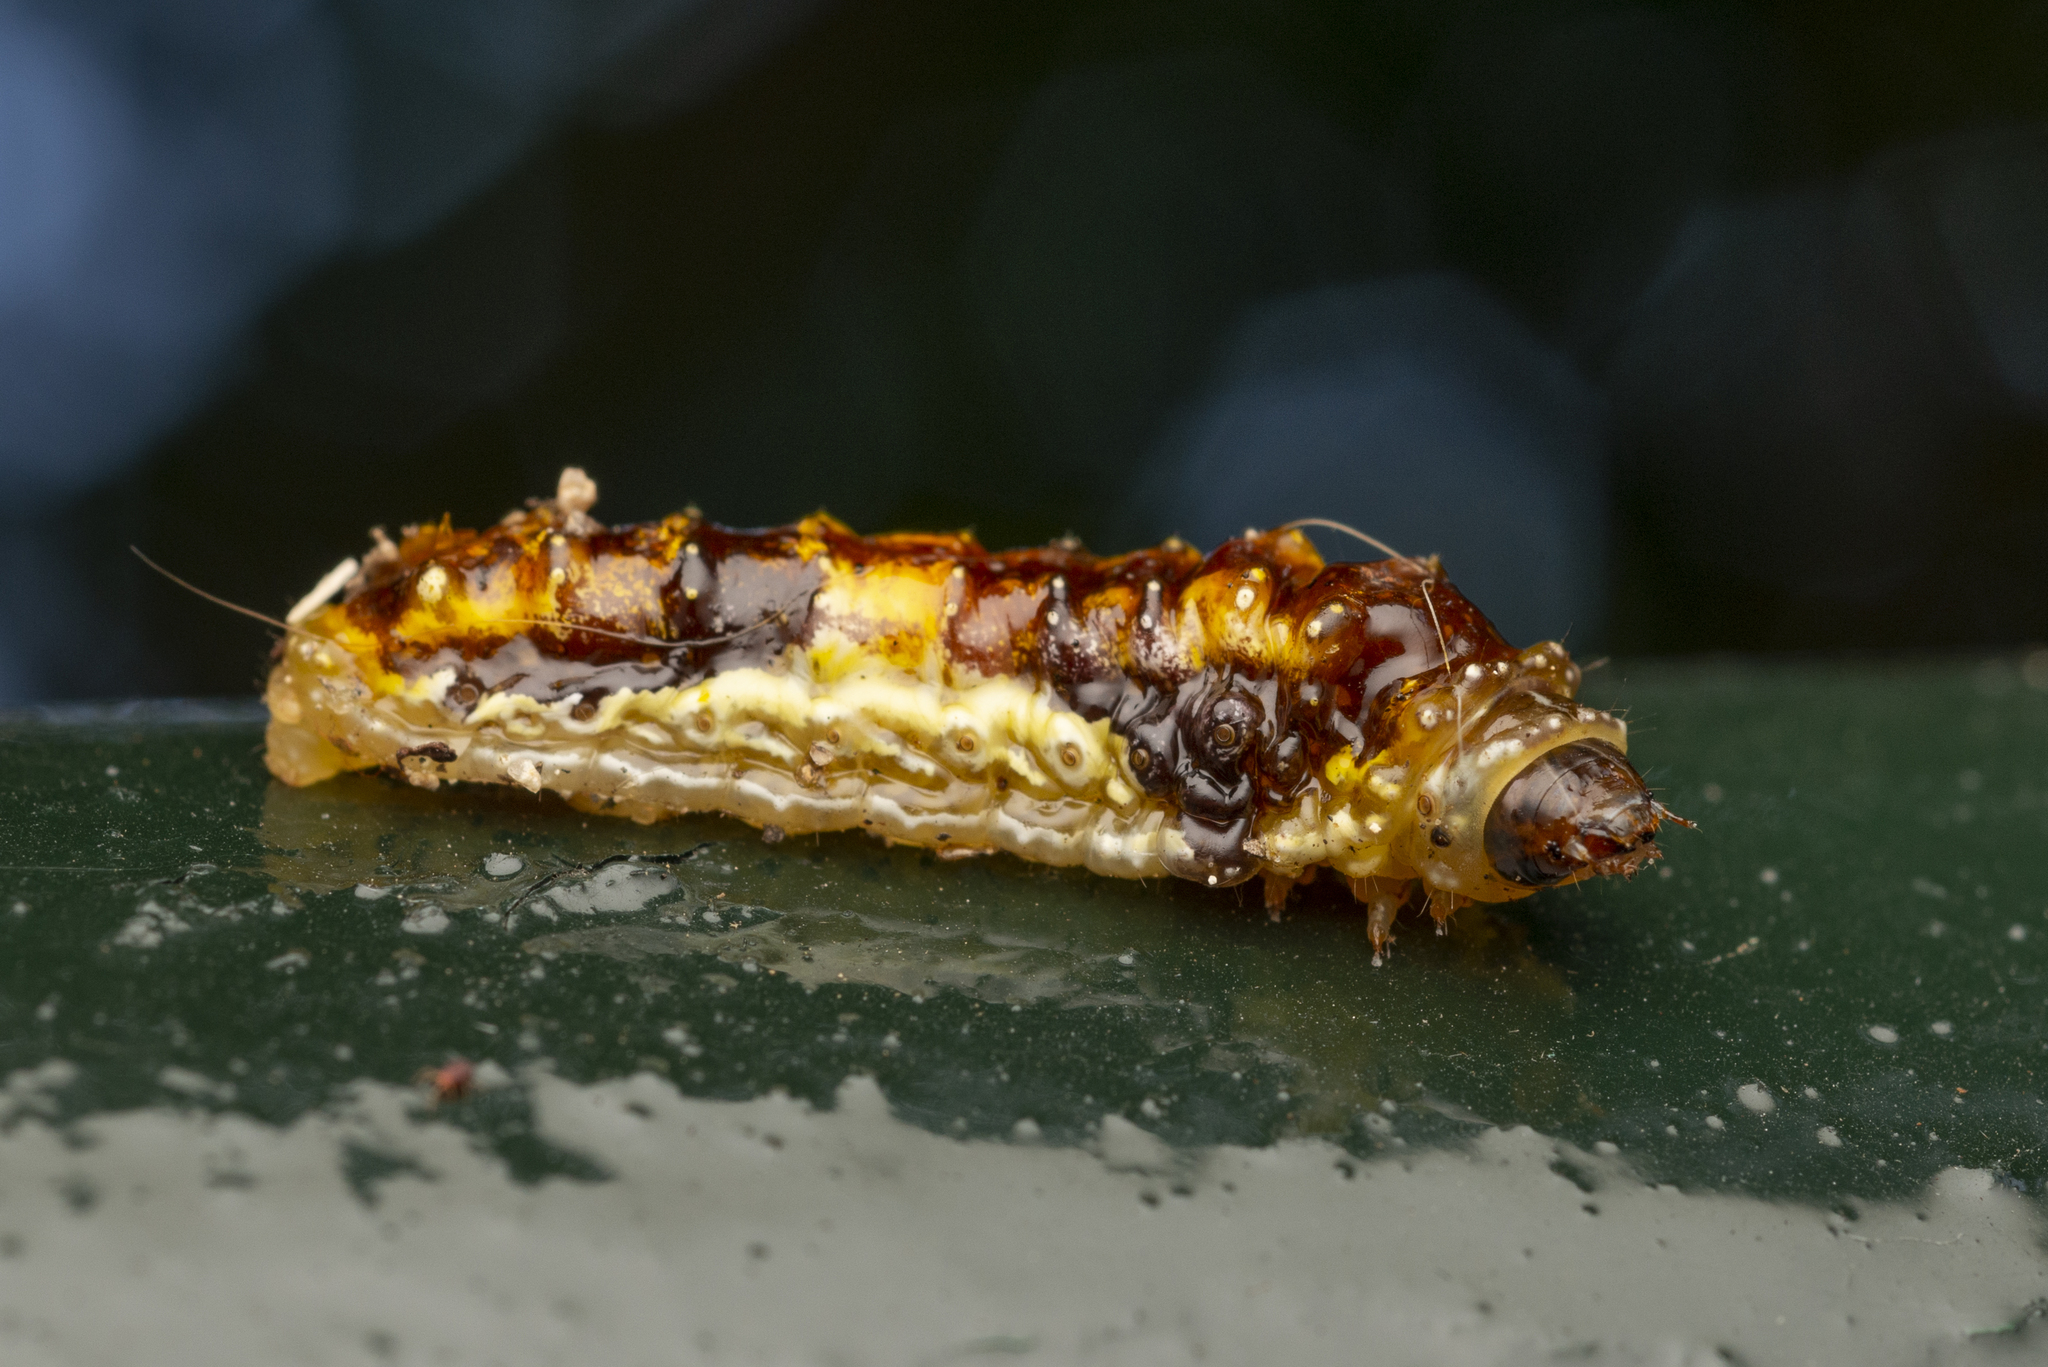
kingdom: Animalia
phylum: Arthropoda
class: Insecta
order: Lepidoptera
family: Phaudidae
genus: Phauda
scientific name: Phauda flammans
